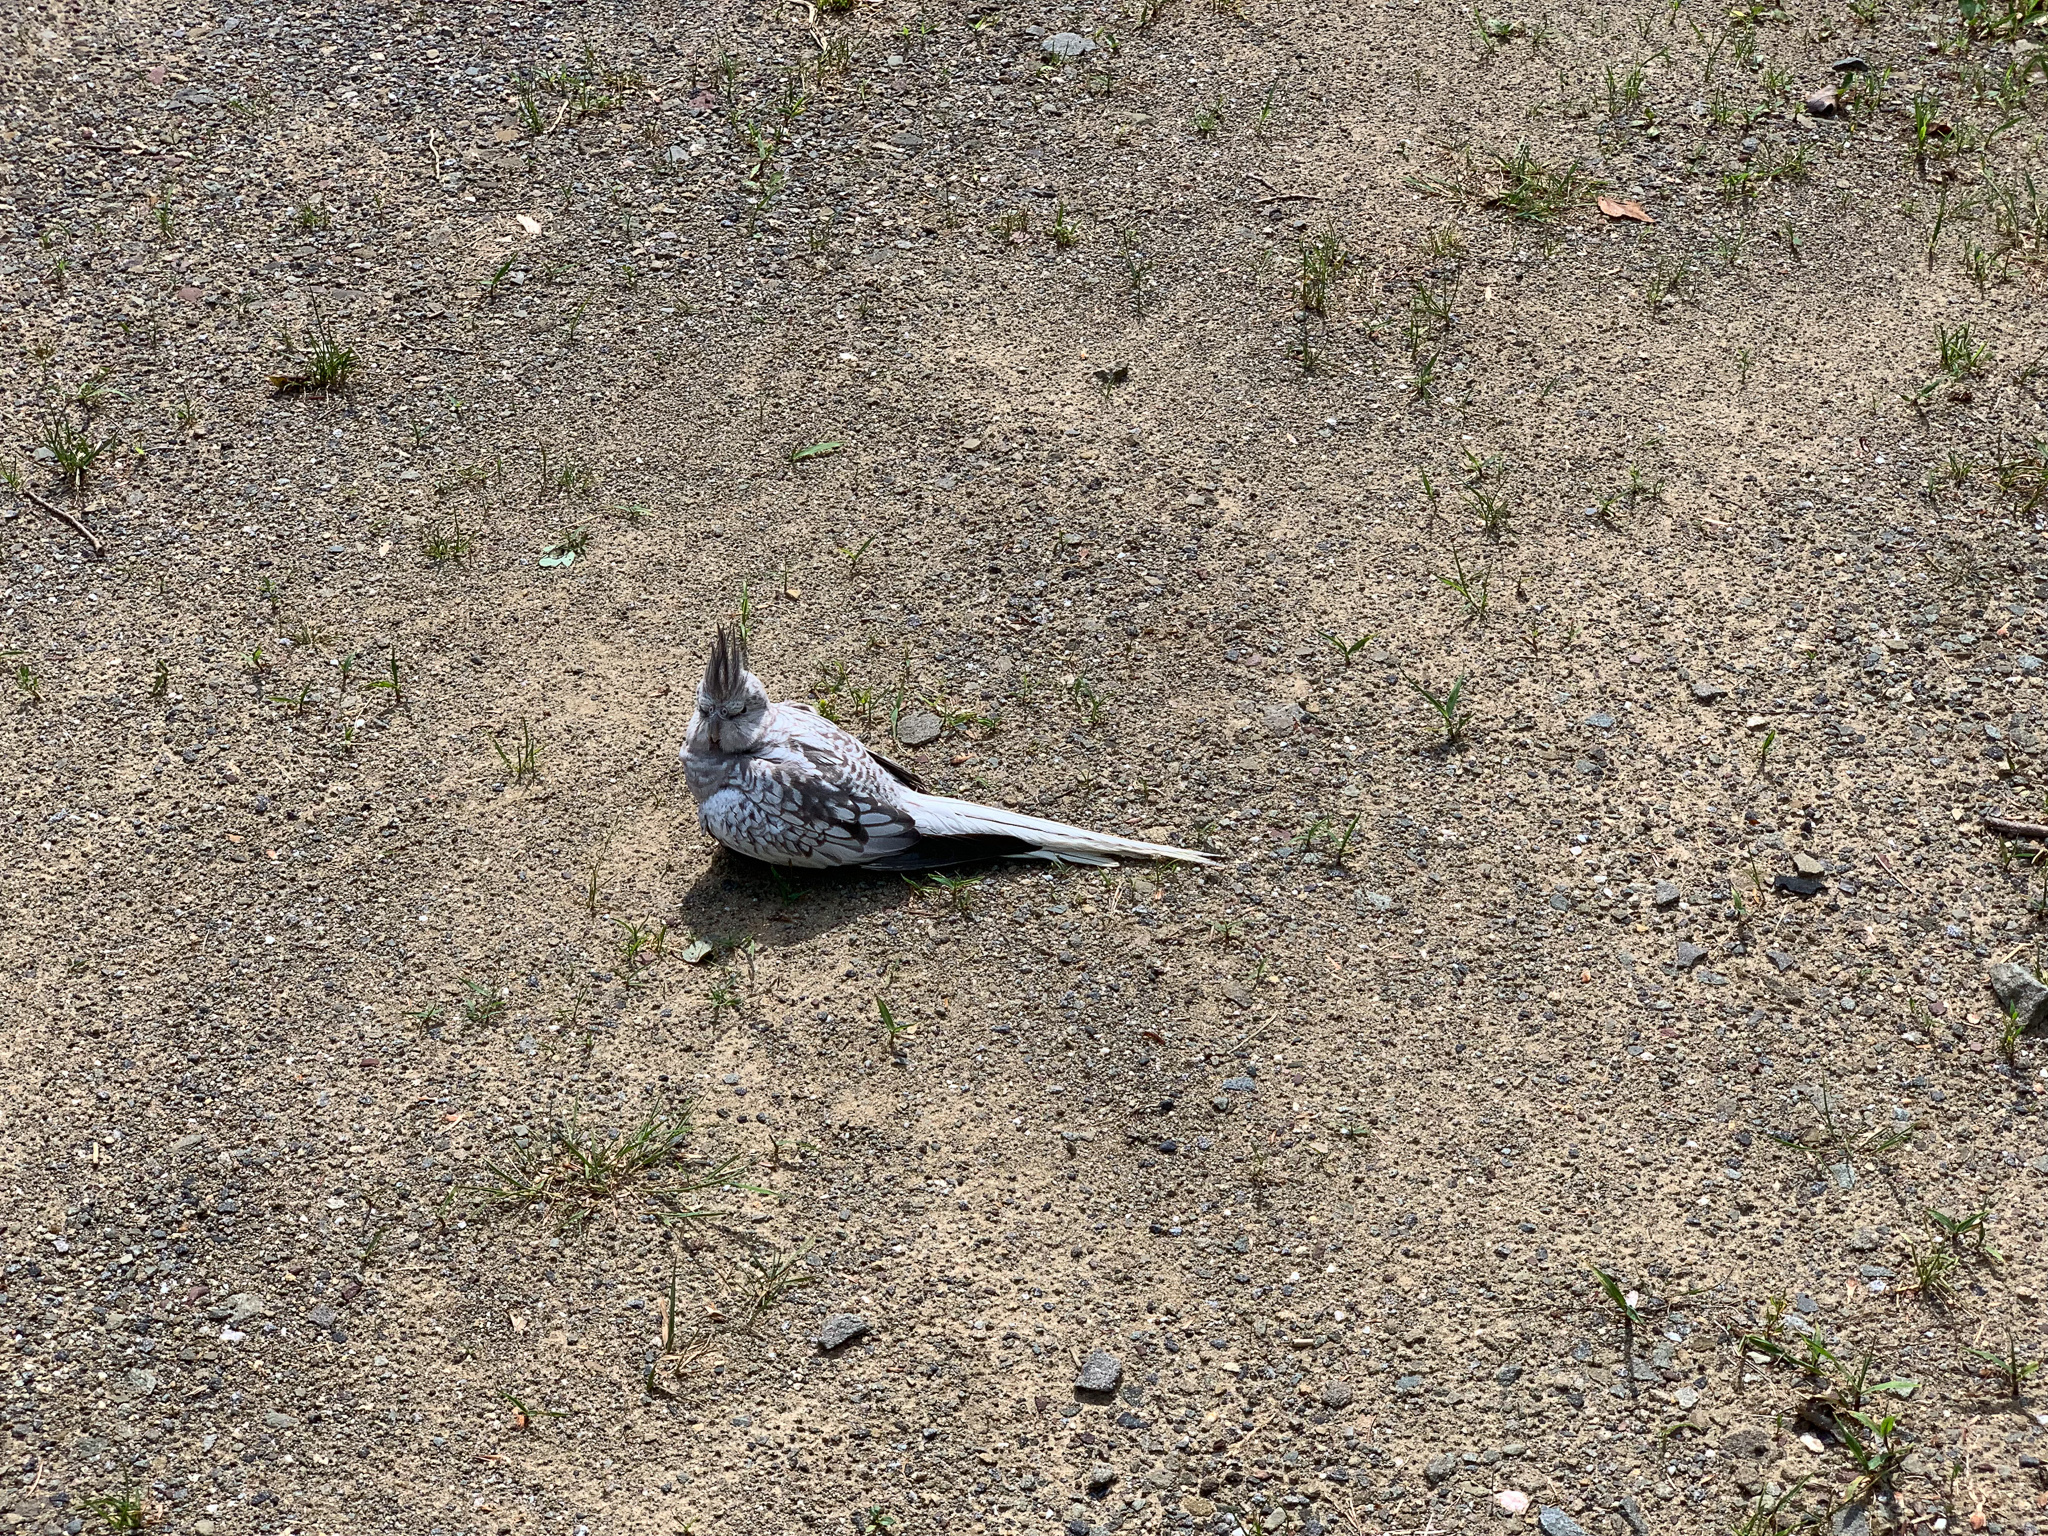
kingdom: Animalia
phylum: Chordata
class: Aves
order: Psittaciformes
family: Psittacidae
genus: Nymphicus
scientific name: Nymphicus hollandicus
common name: Cockatiel
